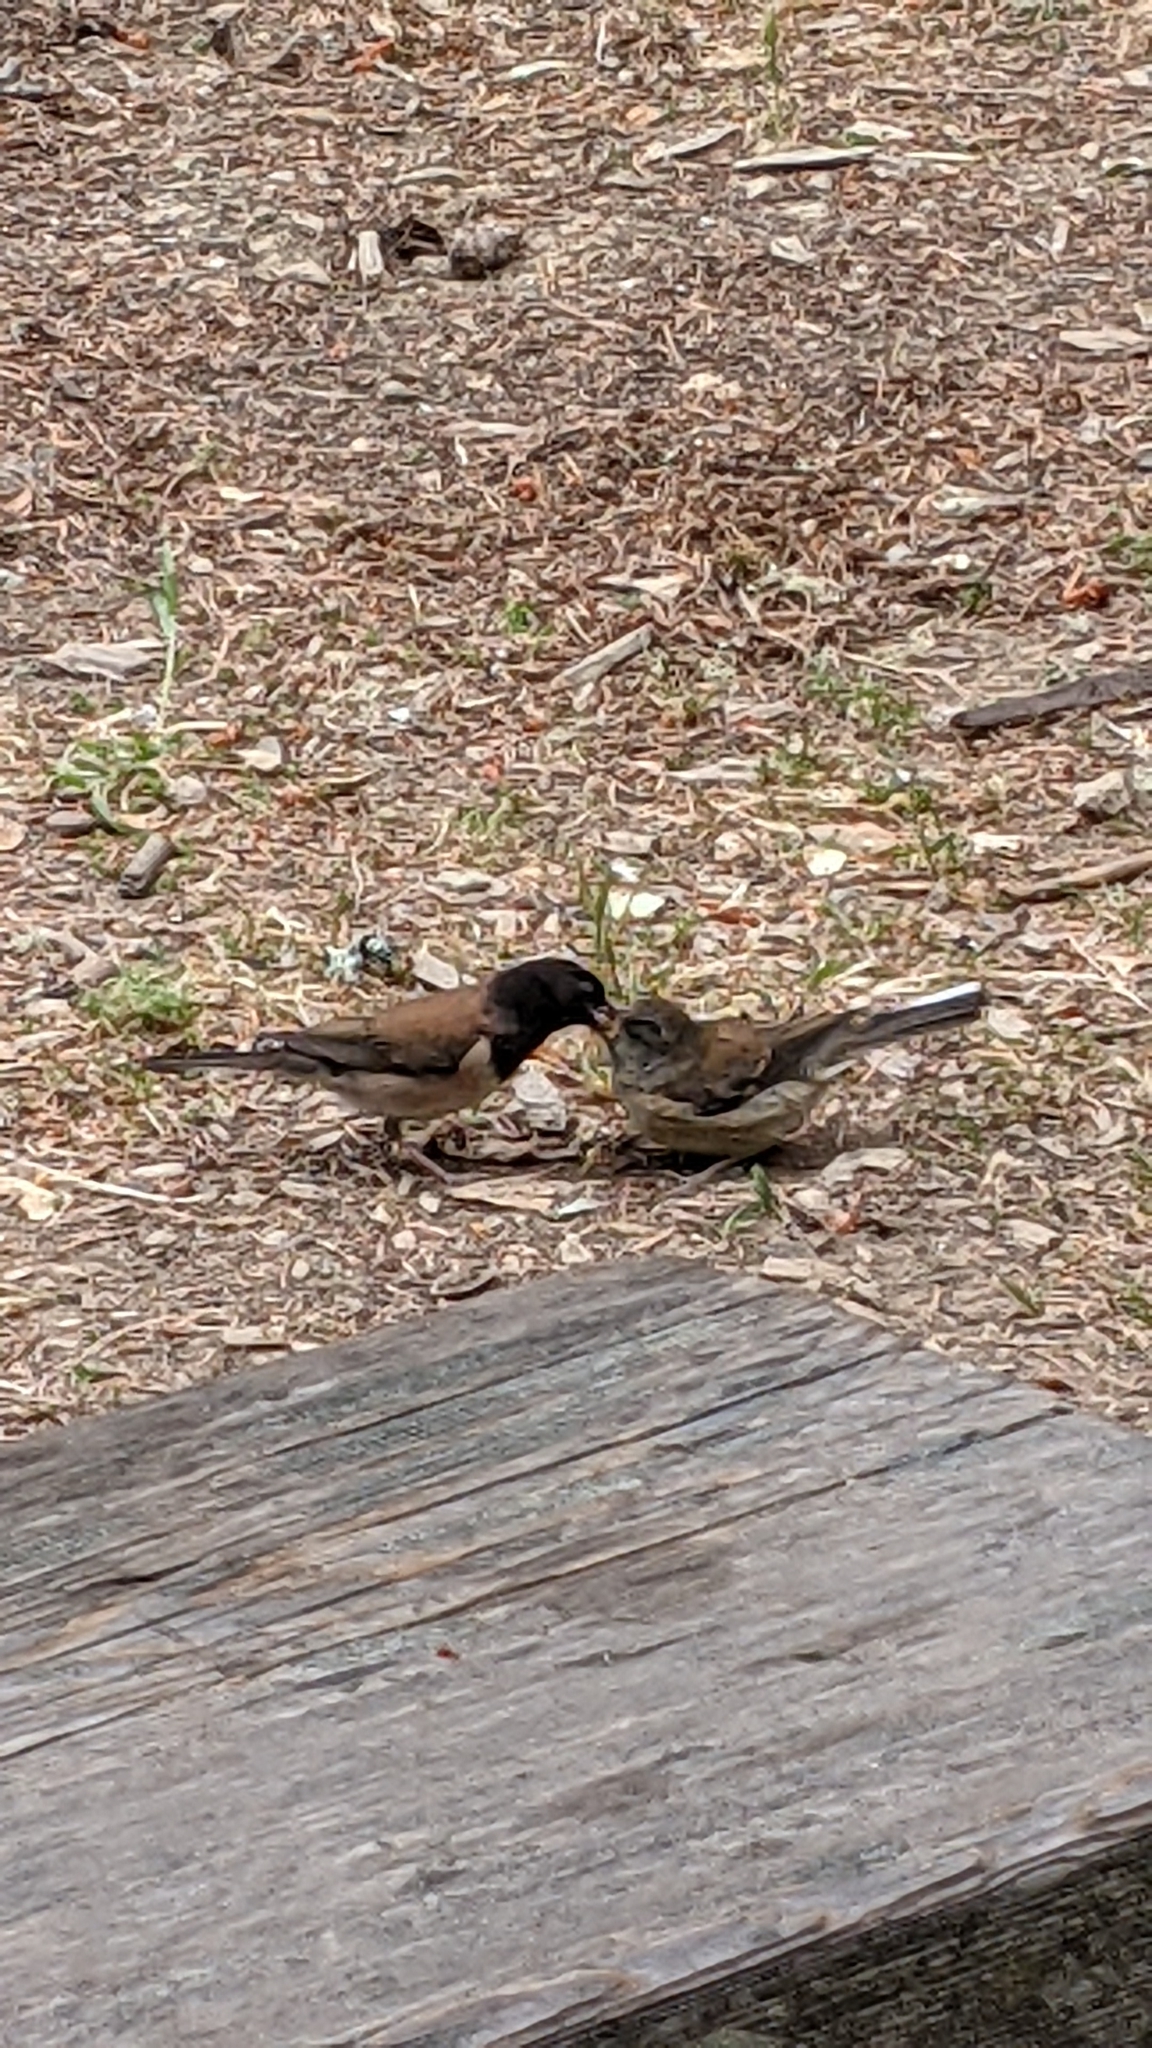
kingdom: Animalia
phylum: Chordata
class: Aves
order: Passeriformes
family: Passerellidae
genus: Junco
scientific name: Junco hyemalis
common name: Dark-eyed junco
